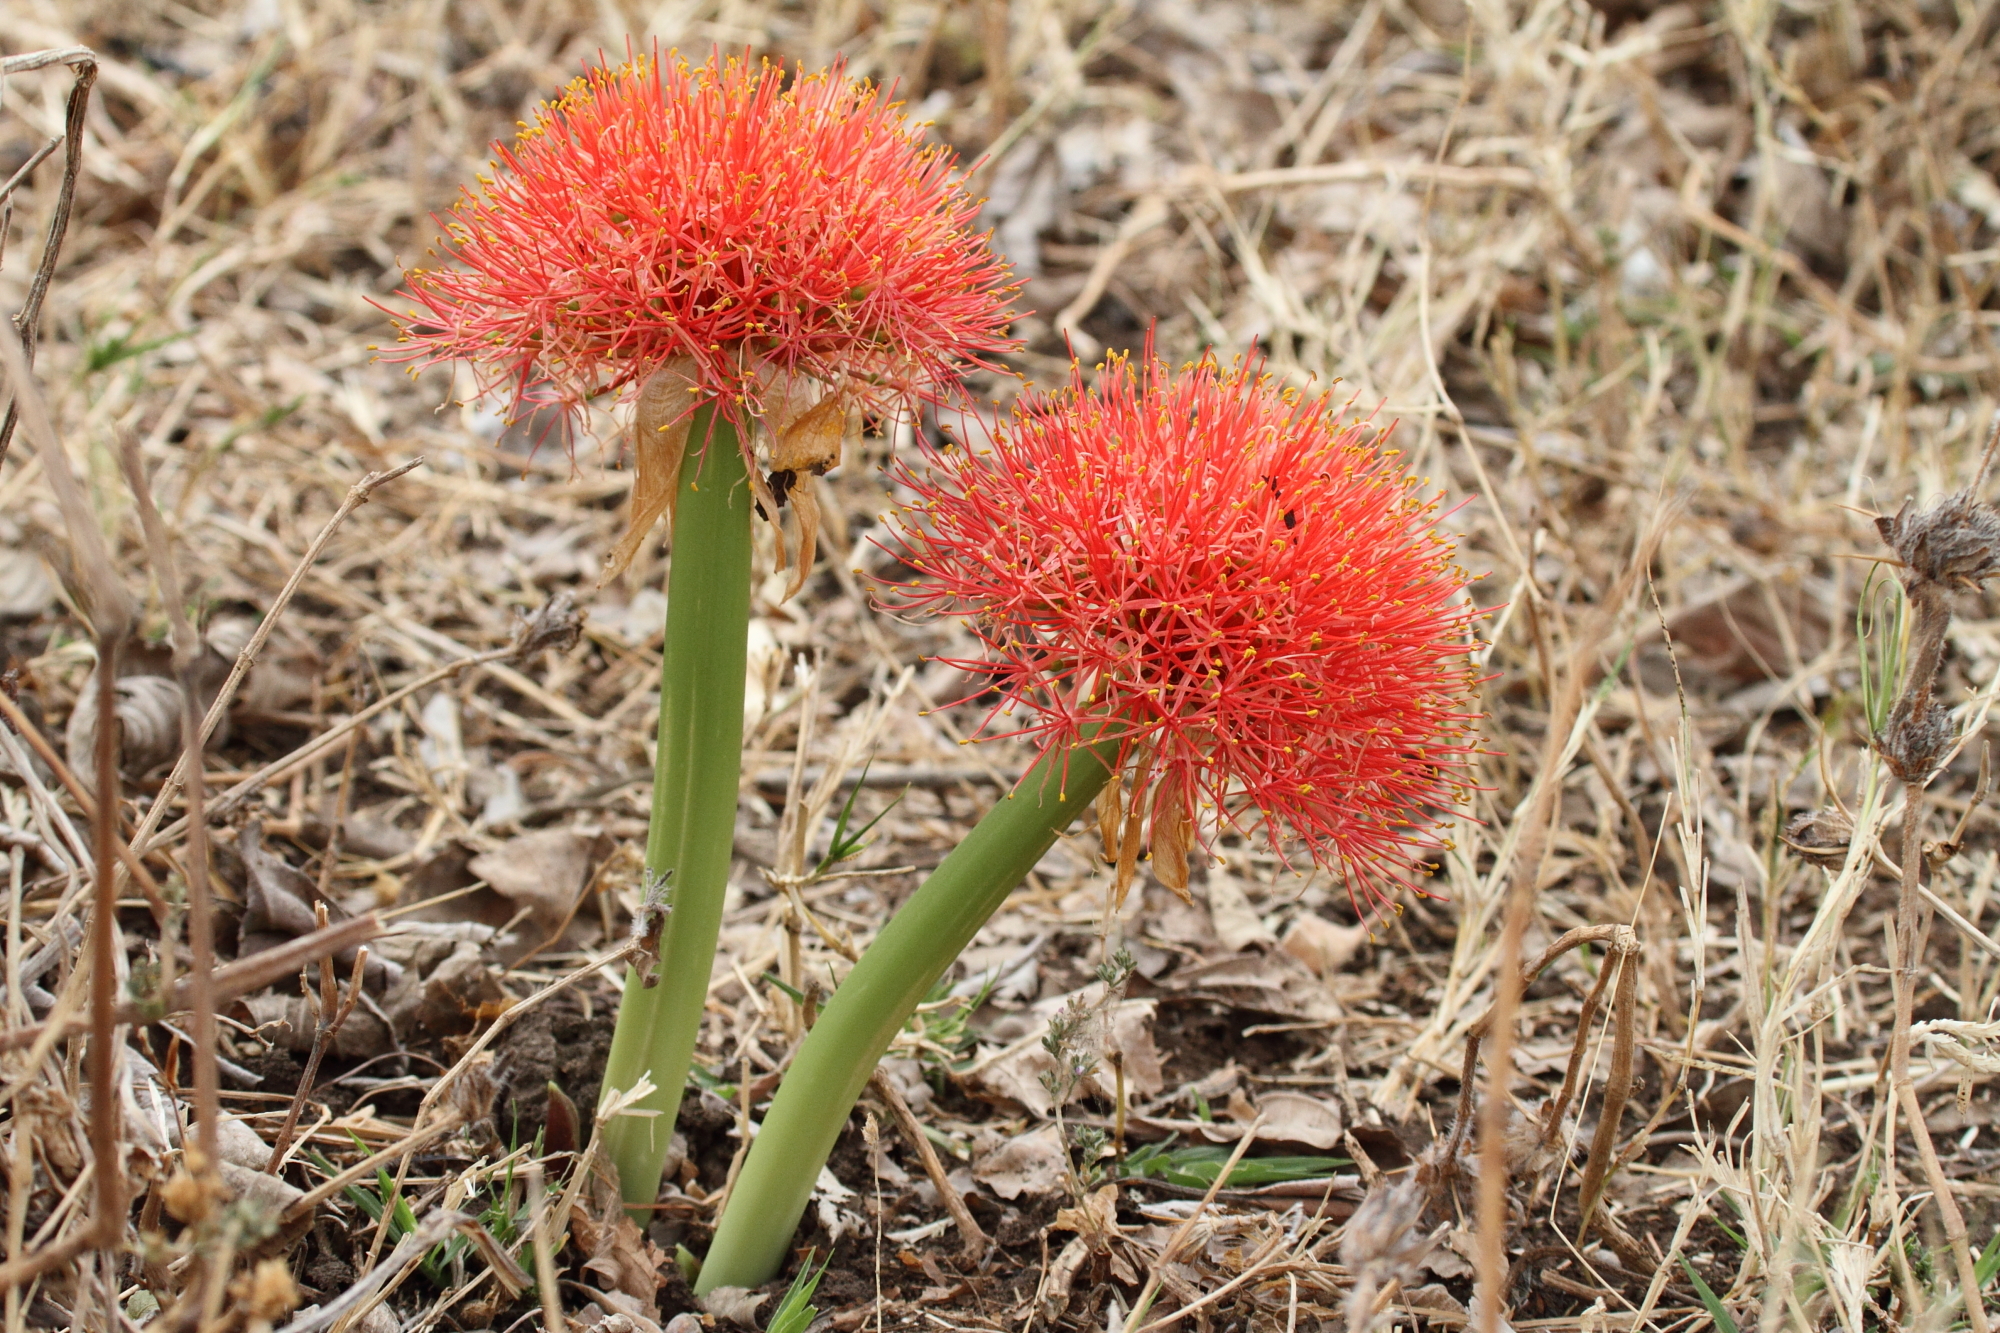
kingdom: Plantae
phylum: Tracheophyta
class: Liliopsida
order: Asparagales
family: Amaryllidaceae
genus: Scadoxus
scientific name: Scadoxus multiflorus
